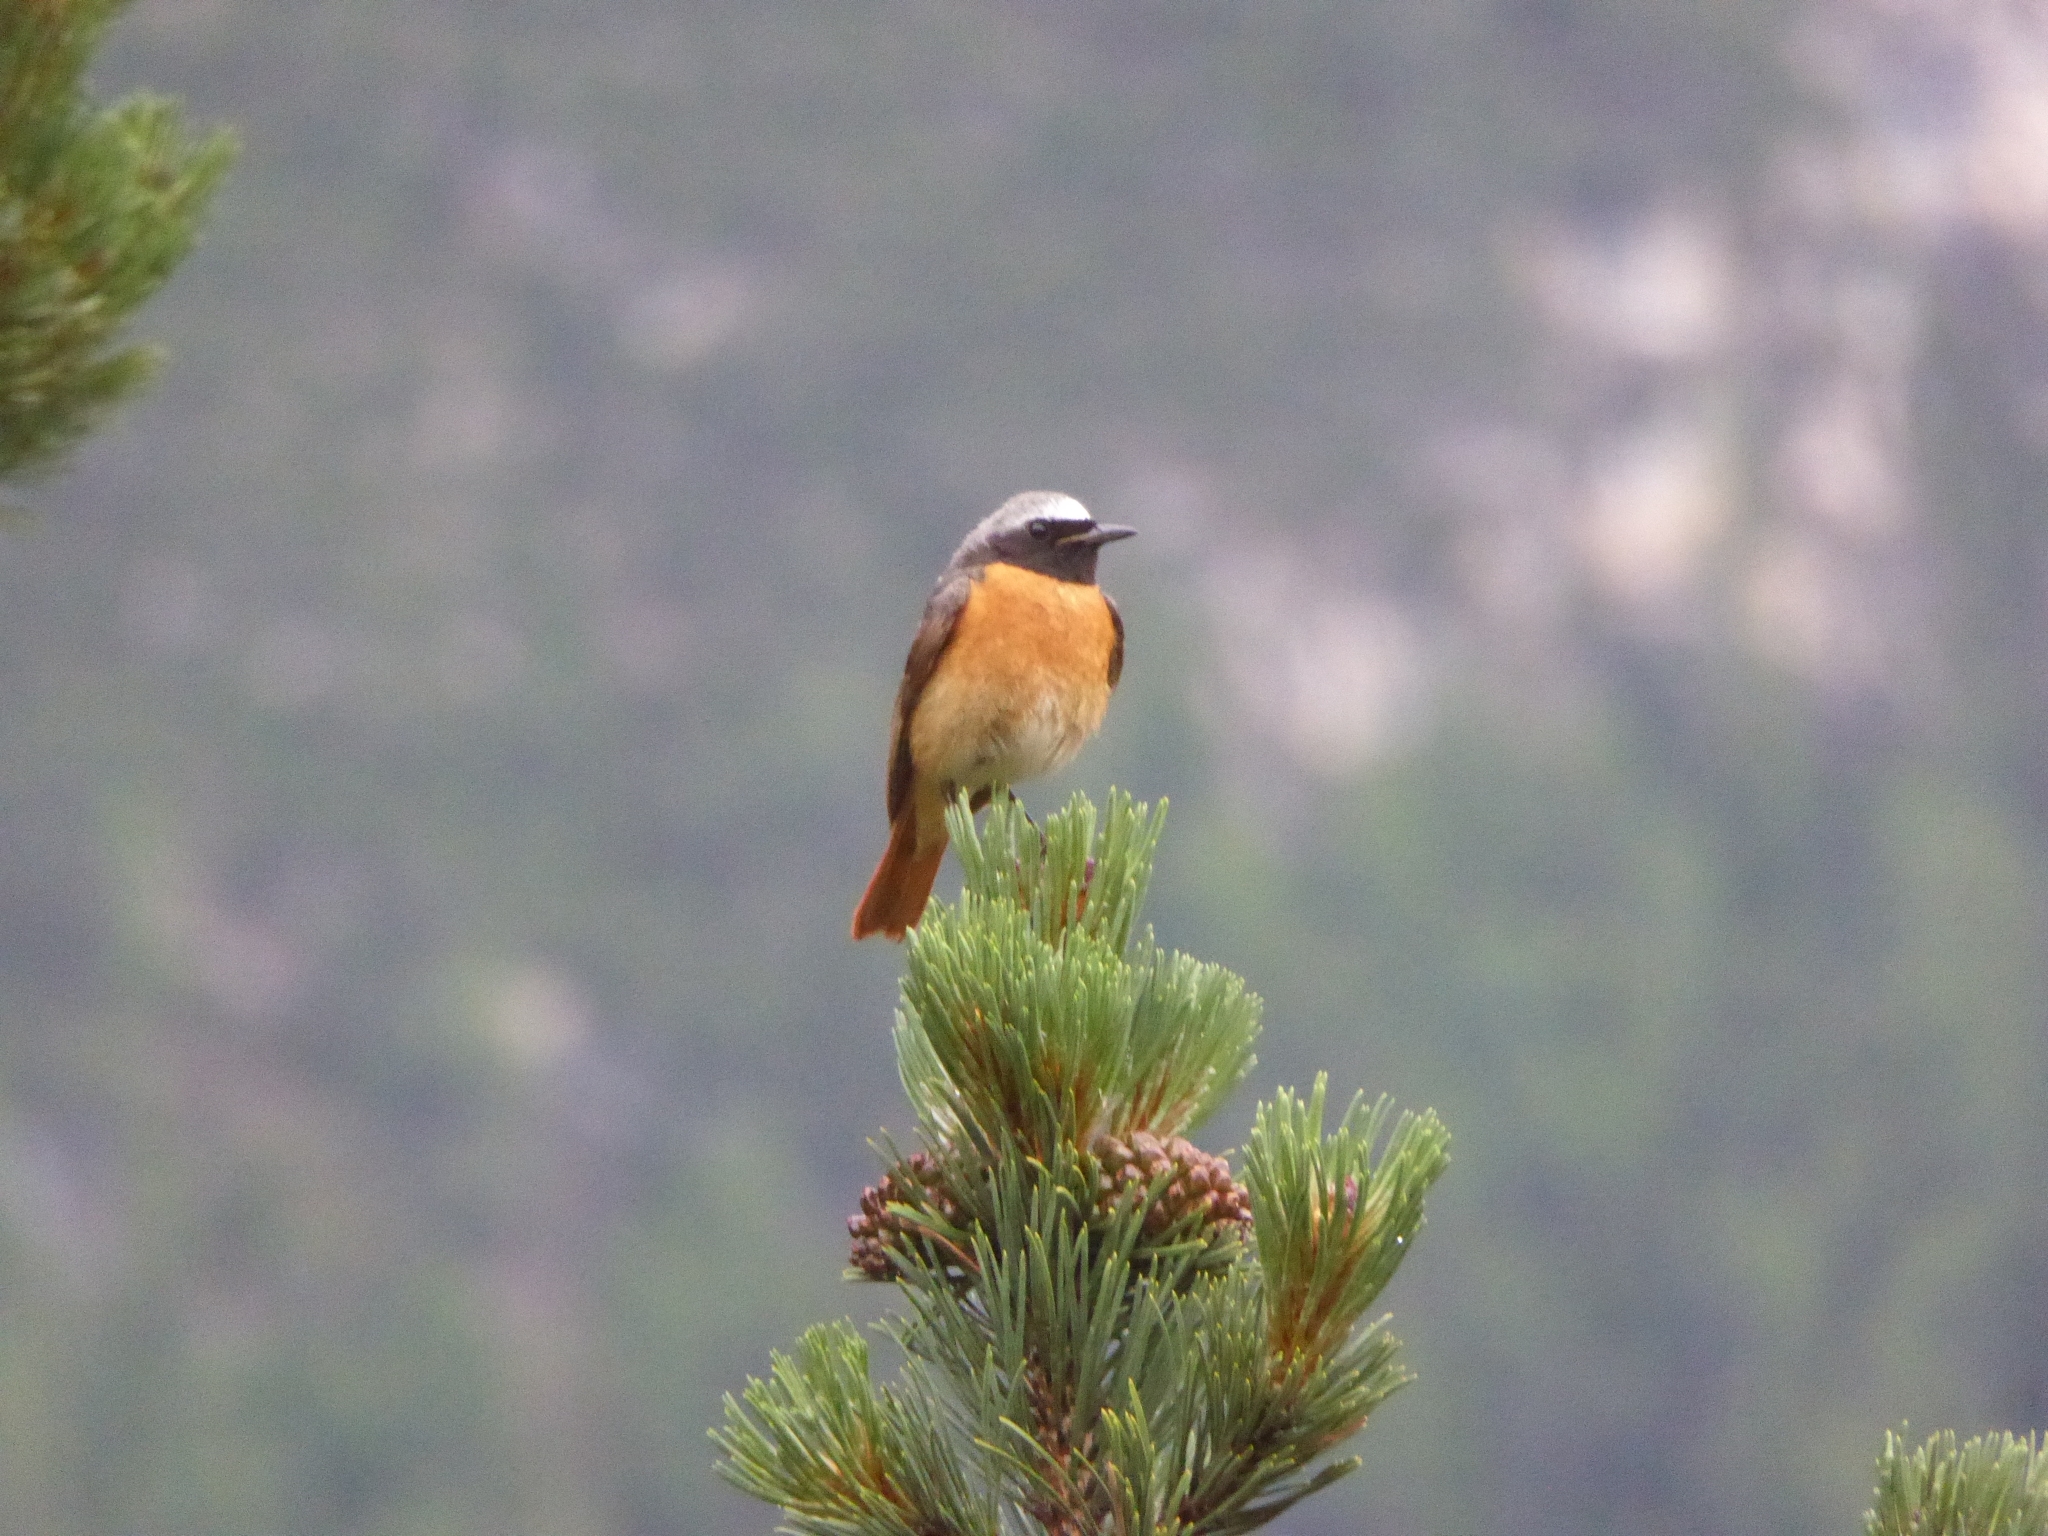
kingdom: Animalia
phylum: Chordata
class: Aves
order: Passeriformes
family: Muscicapidae
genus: Phoenicurus
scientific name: Phoenicurus phoenicurus
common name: Common redstart
